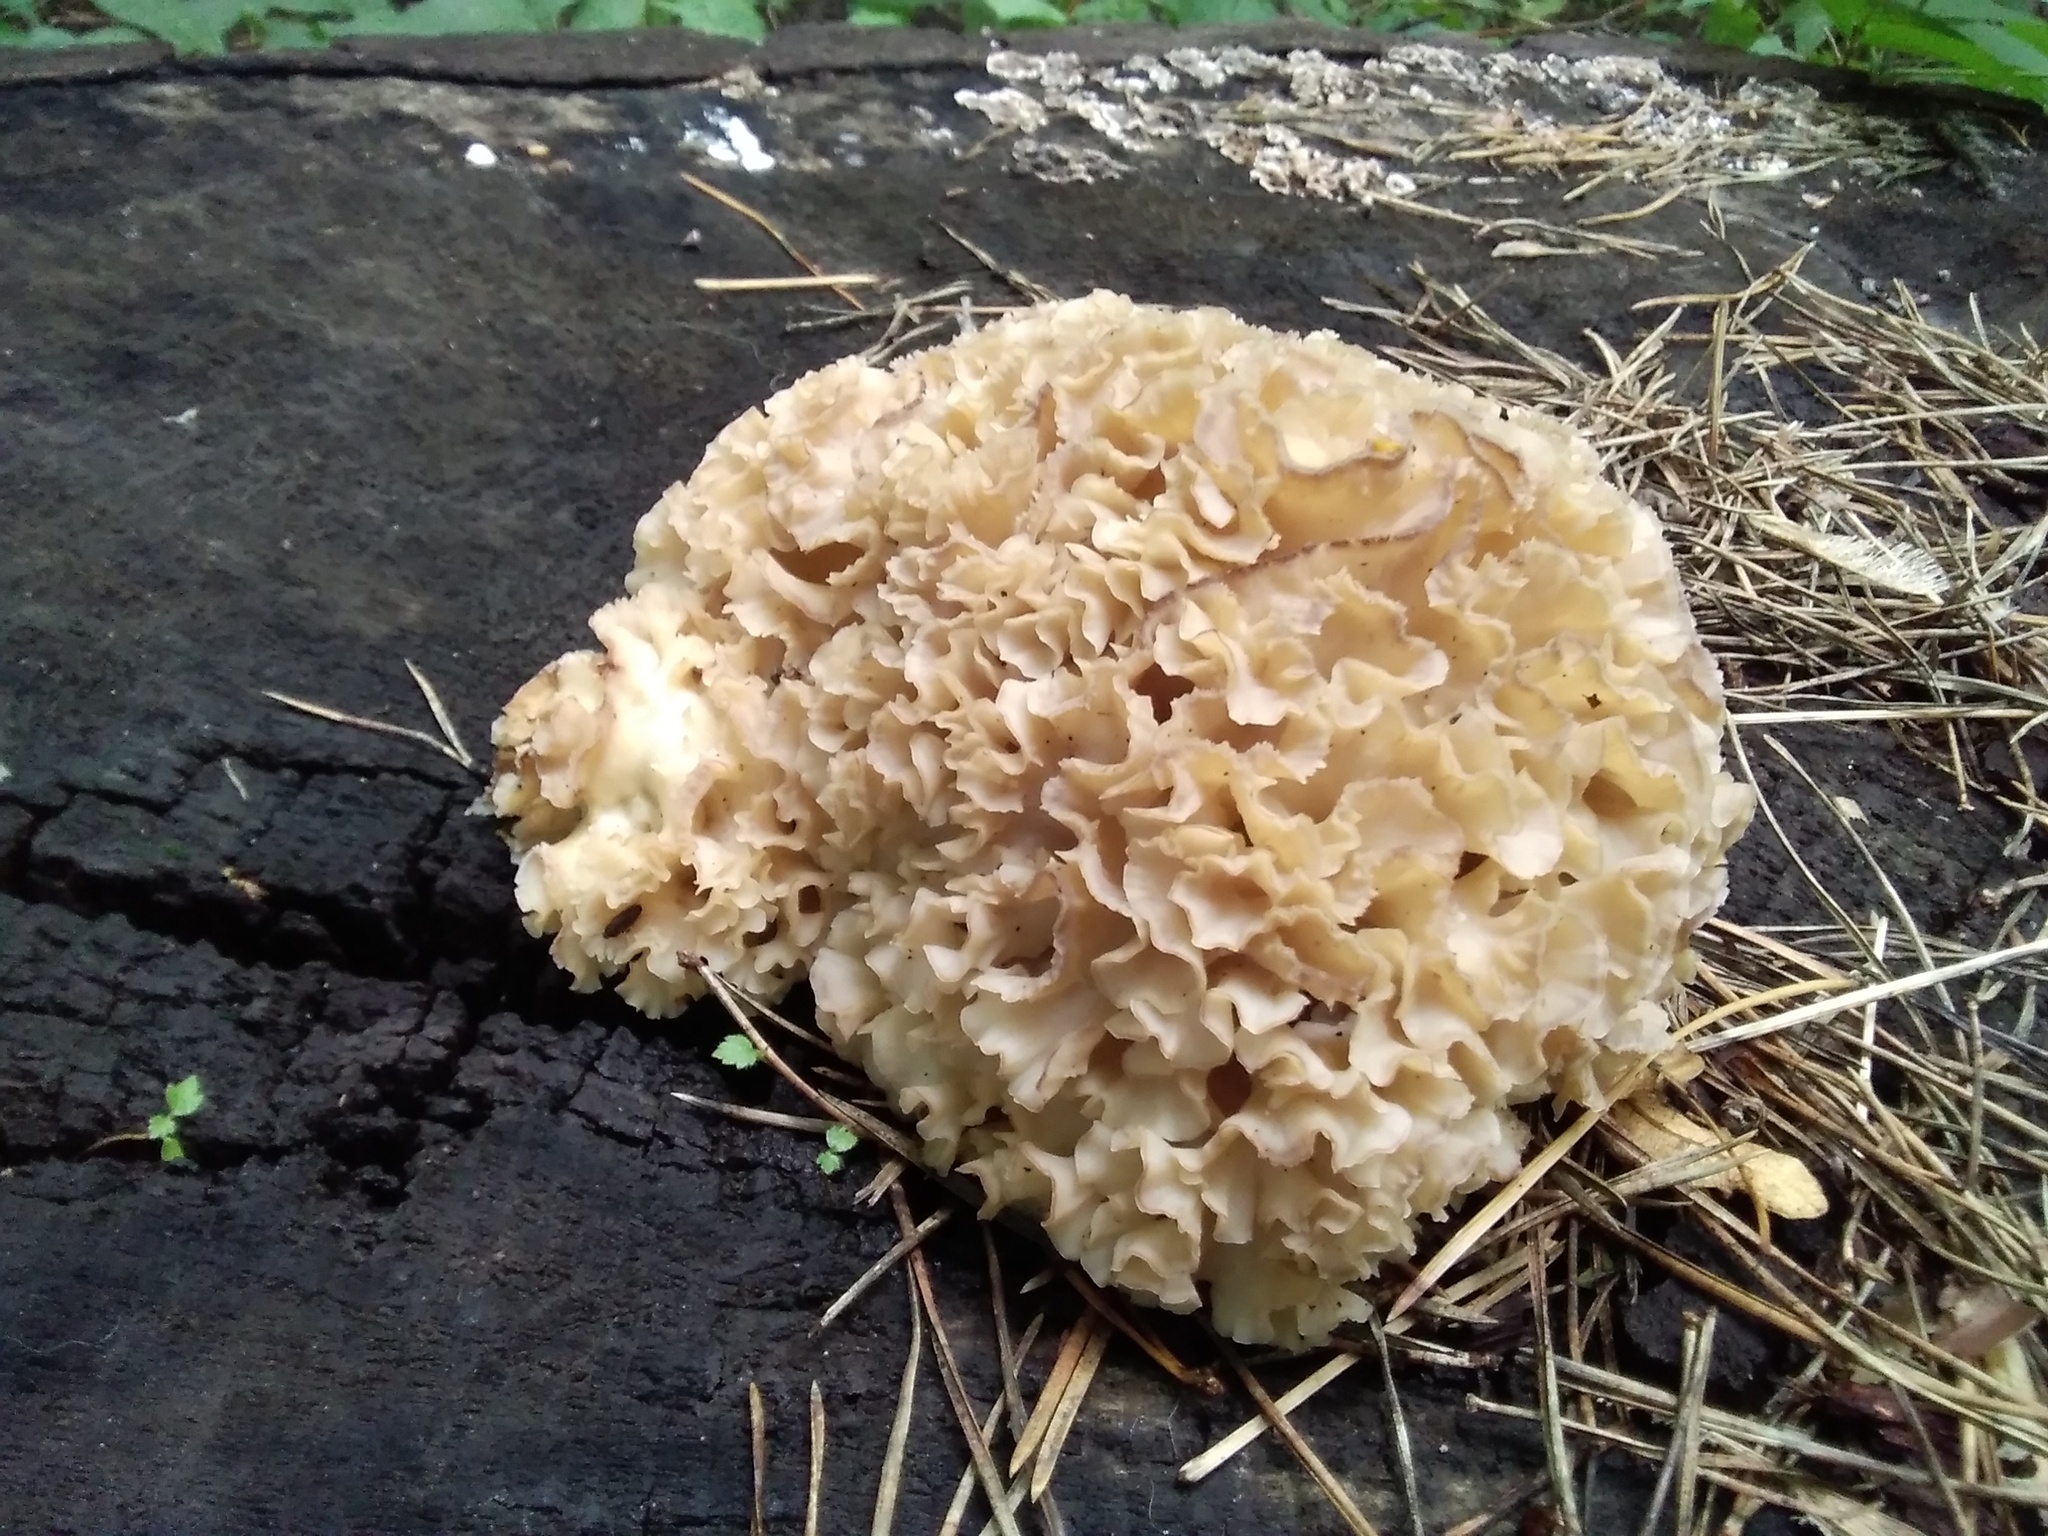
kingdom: Fungi
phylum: Basidiomycota
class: Agaricomycetes
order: Polyporales
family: Sparassidaceae
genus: Sparassis
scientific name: Sparassis crispa
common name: Brain fungus
